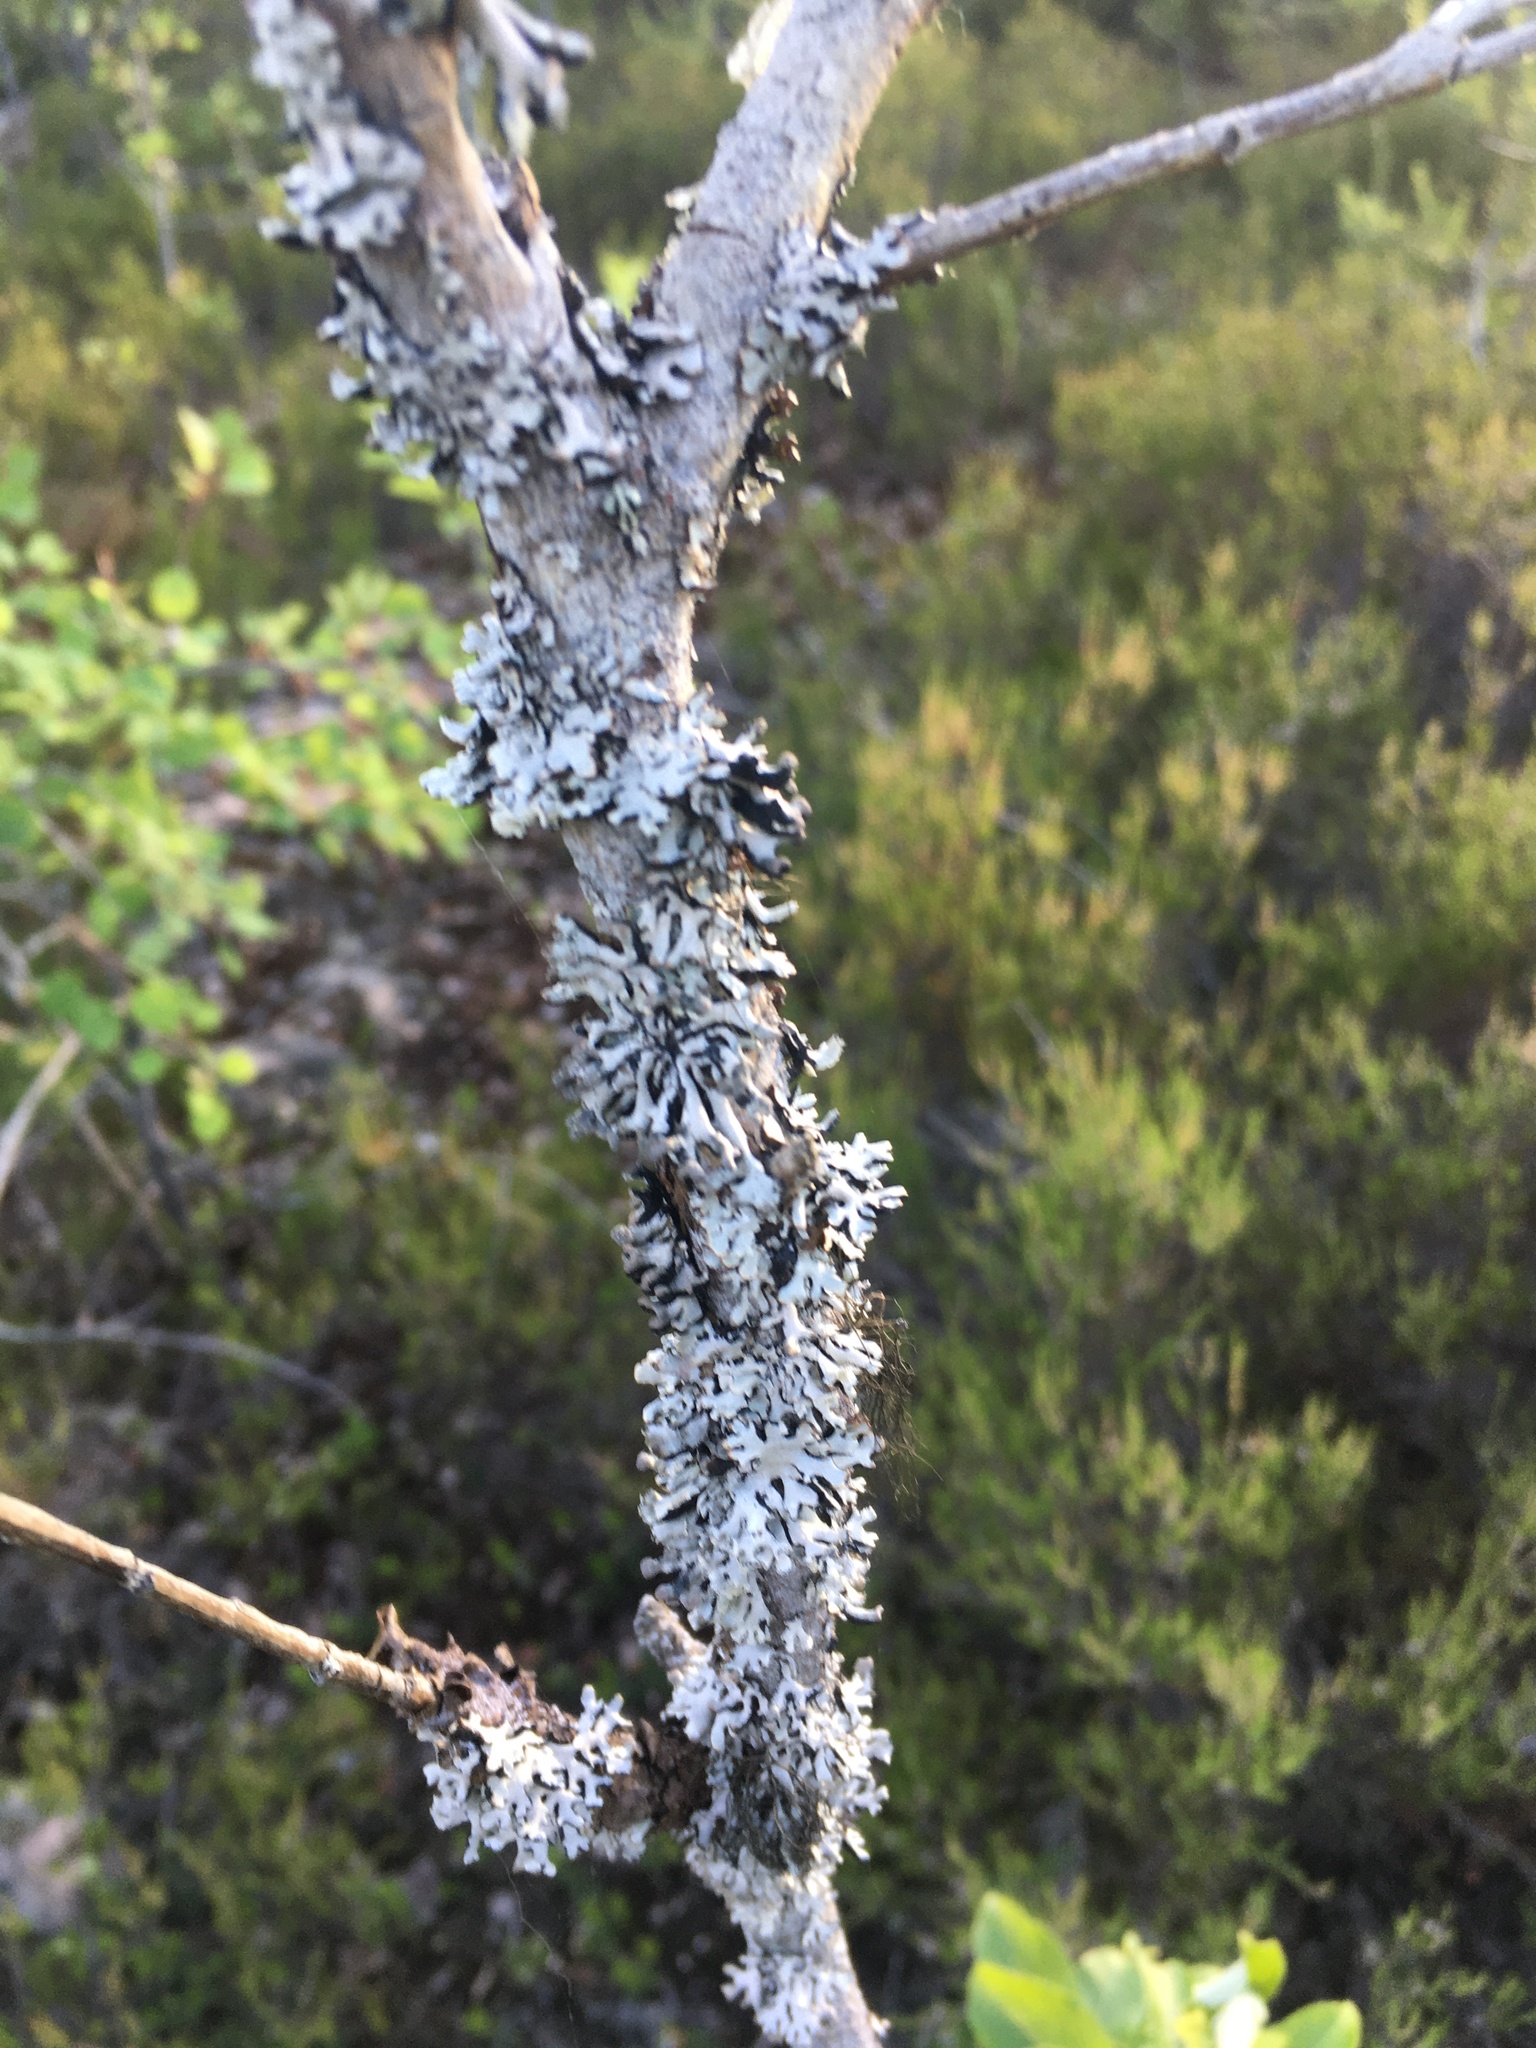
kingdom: Fungi
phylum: Ascomycota
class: Lecanoromycetes
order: Lecanorales
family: Parmeliaceae
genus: Hypogymnia
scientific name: Hypogymnia physodes
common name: Dark crottle
